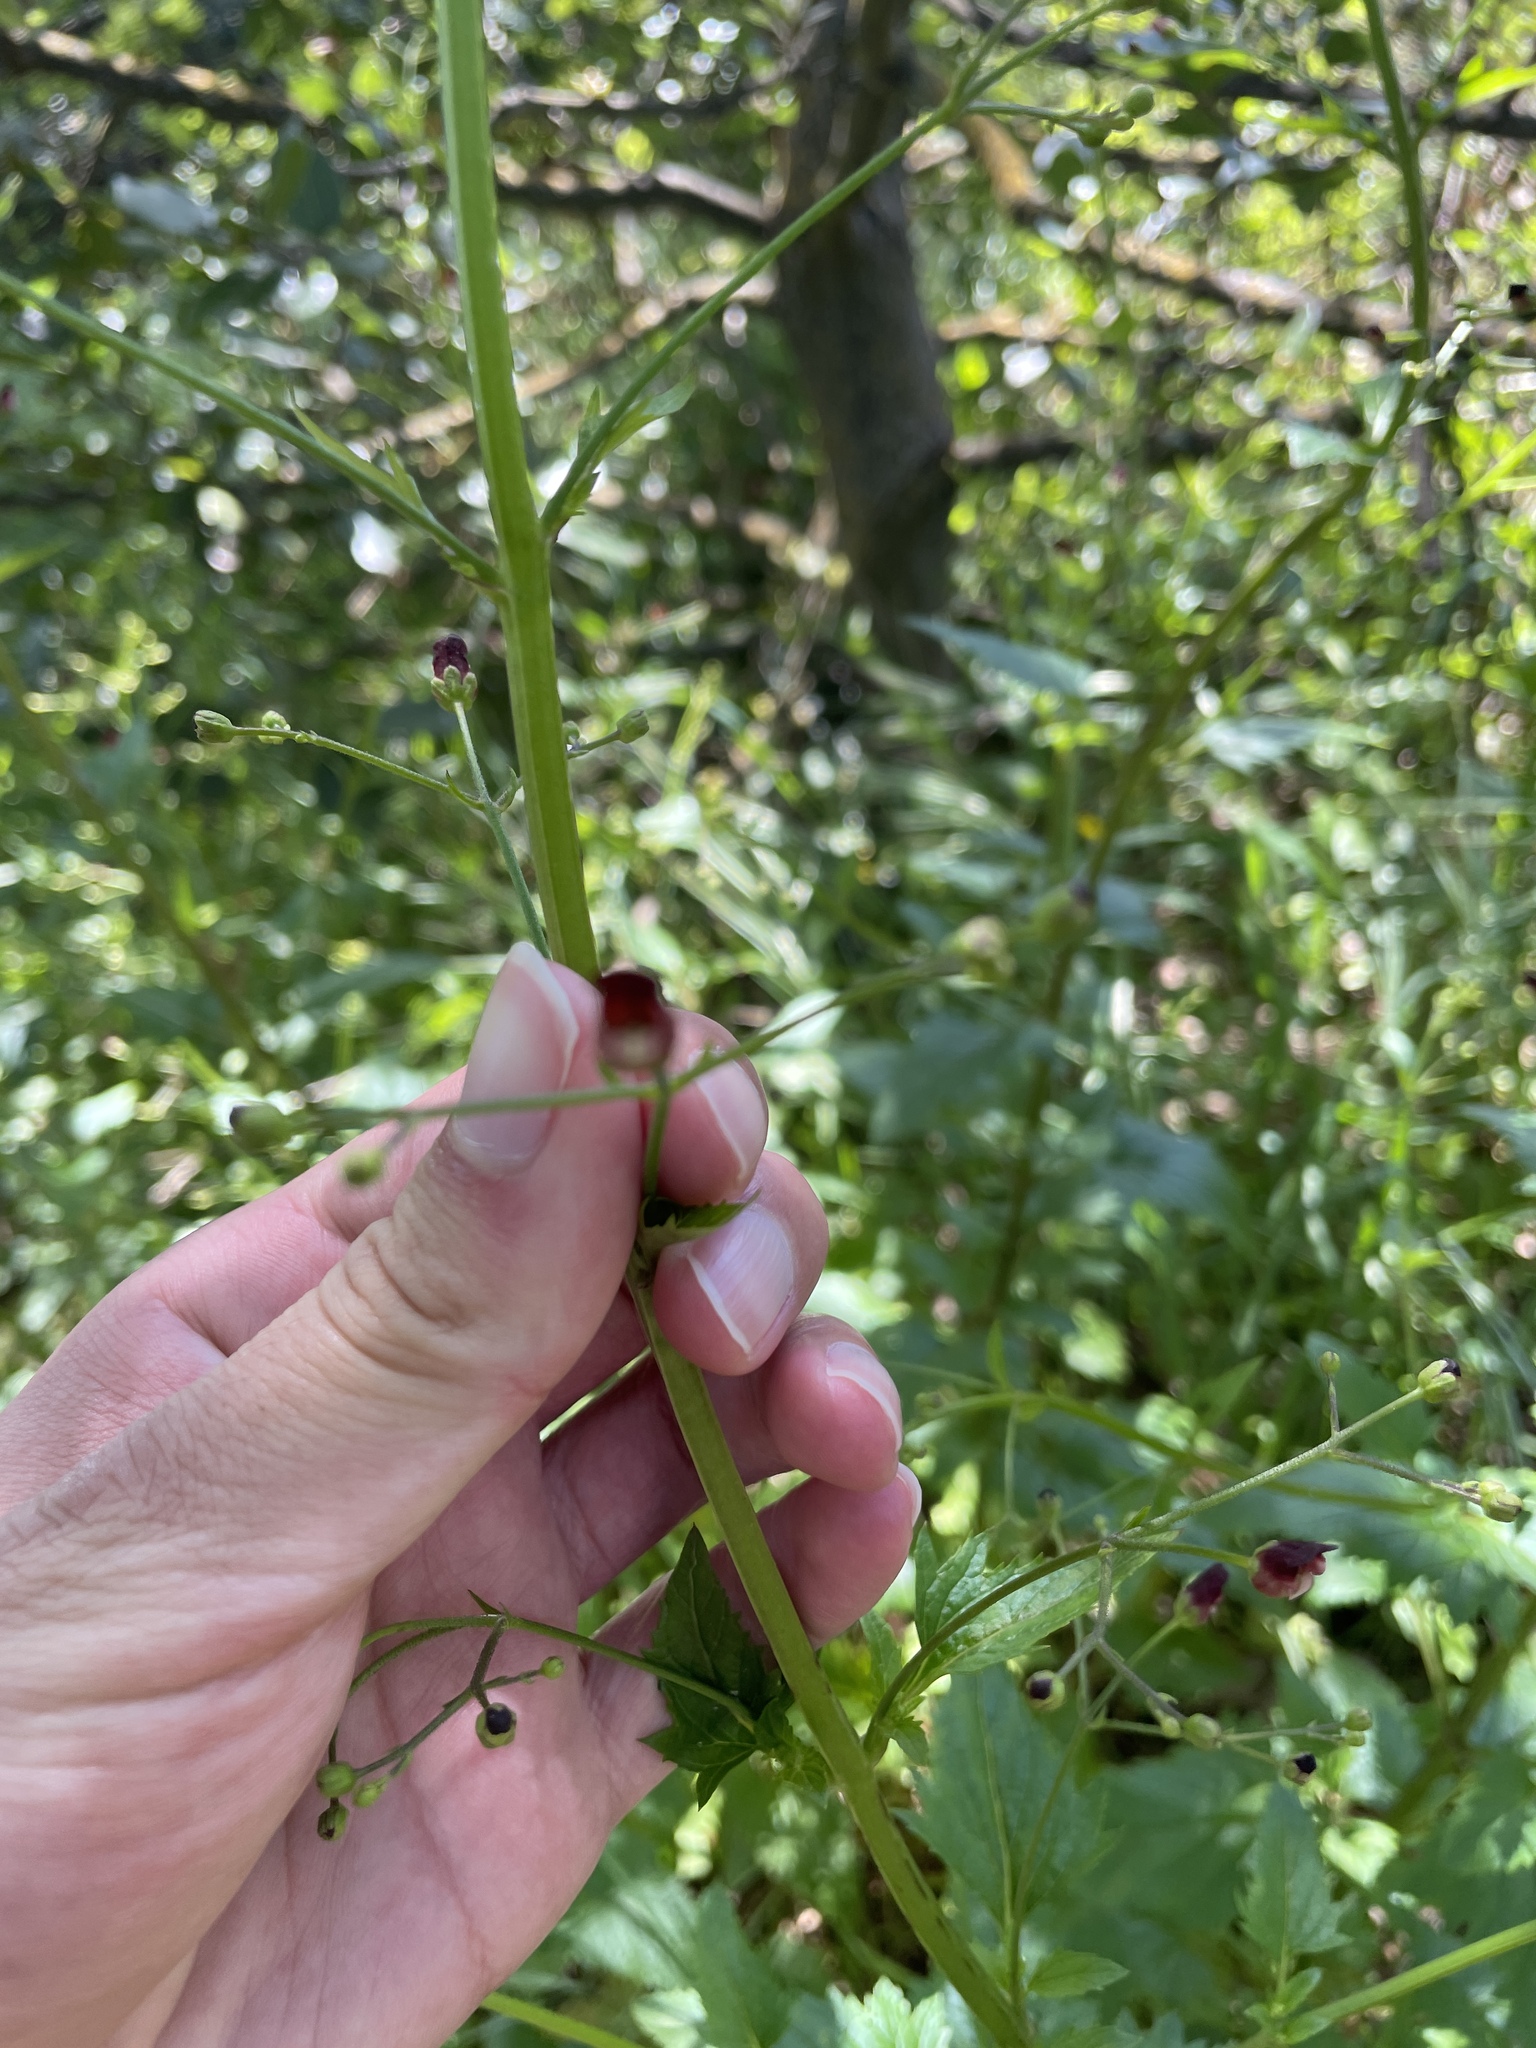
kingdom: Plantae
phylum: Tracheophyta
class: Magnoliopsida
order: Lamiales
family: Scrophulariaceae
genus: Scrophularia
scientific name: Scrophularia californica
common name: California figwort
